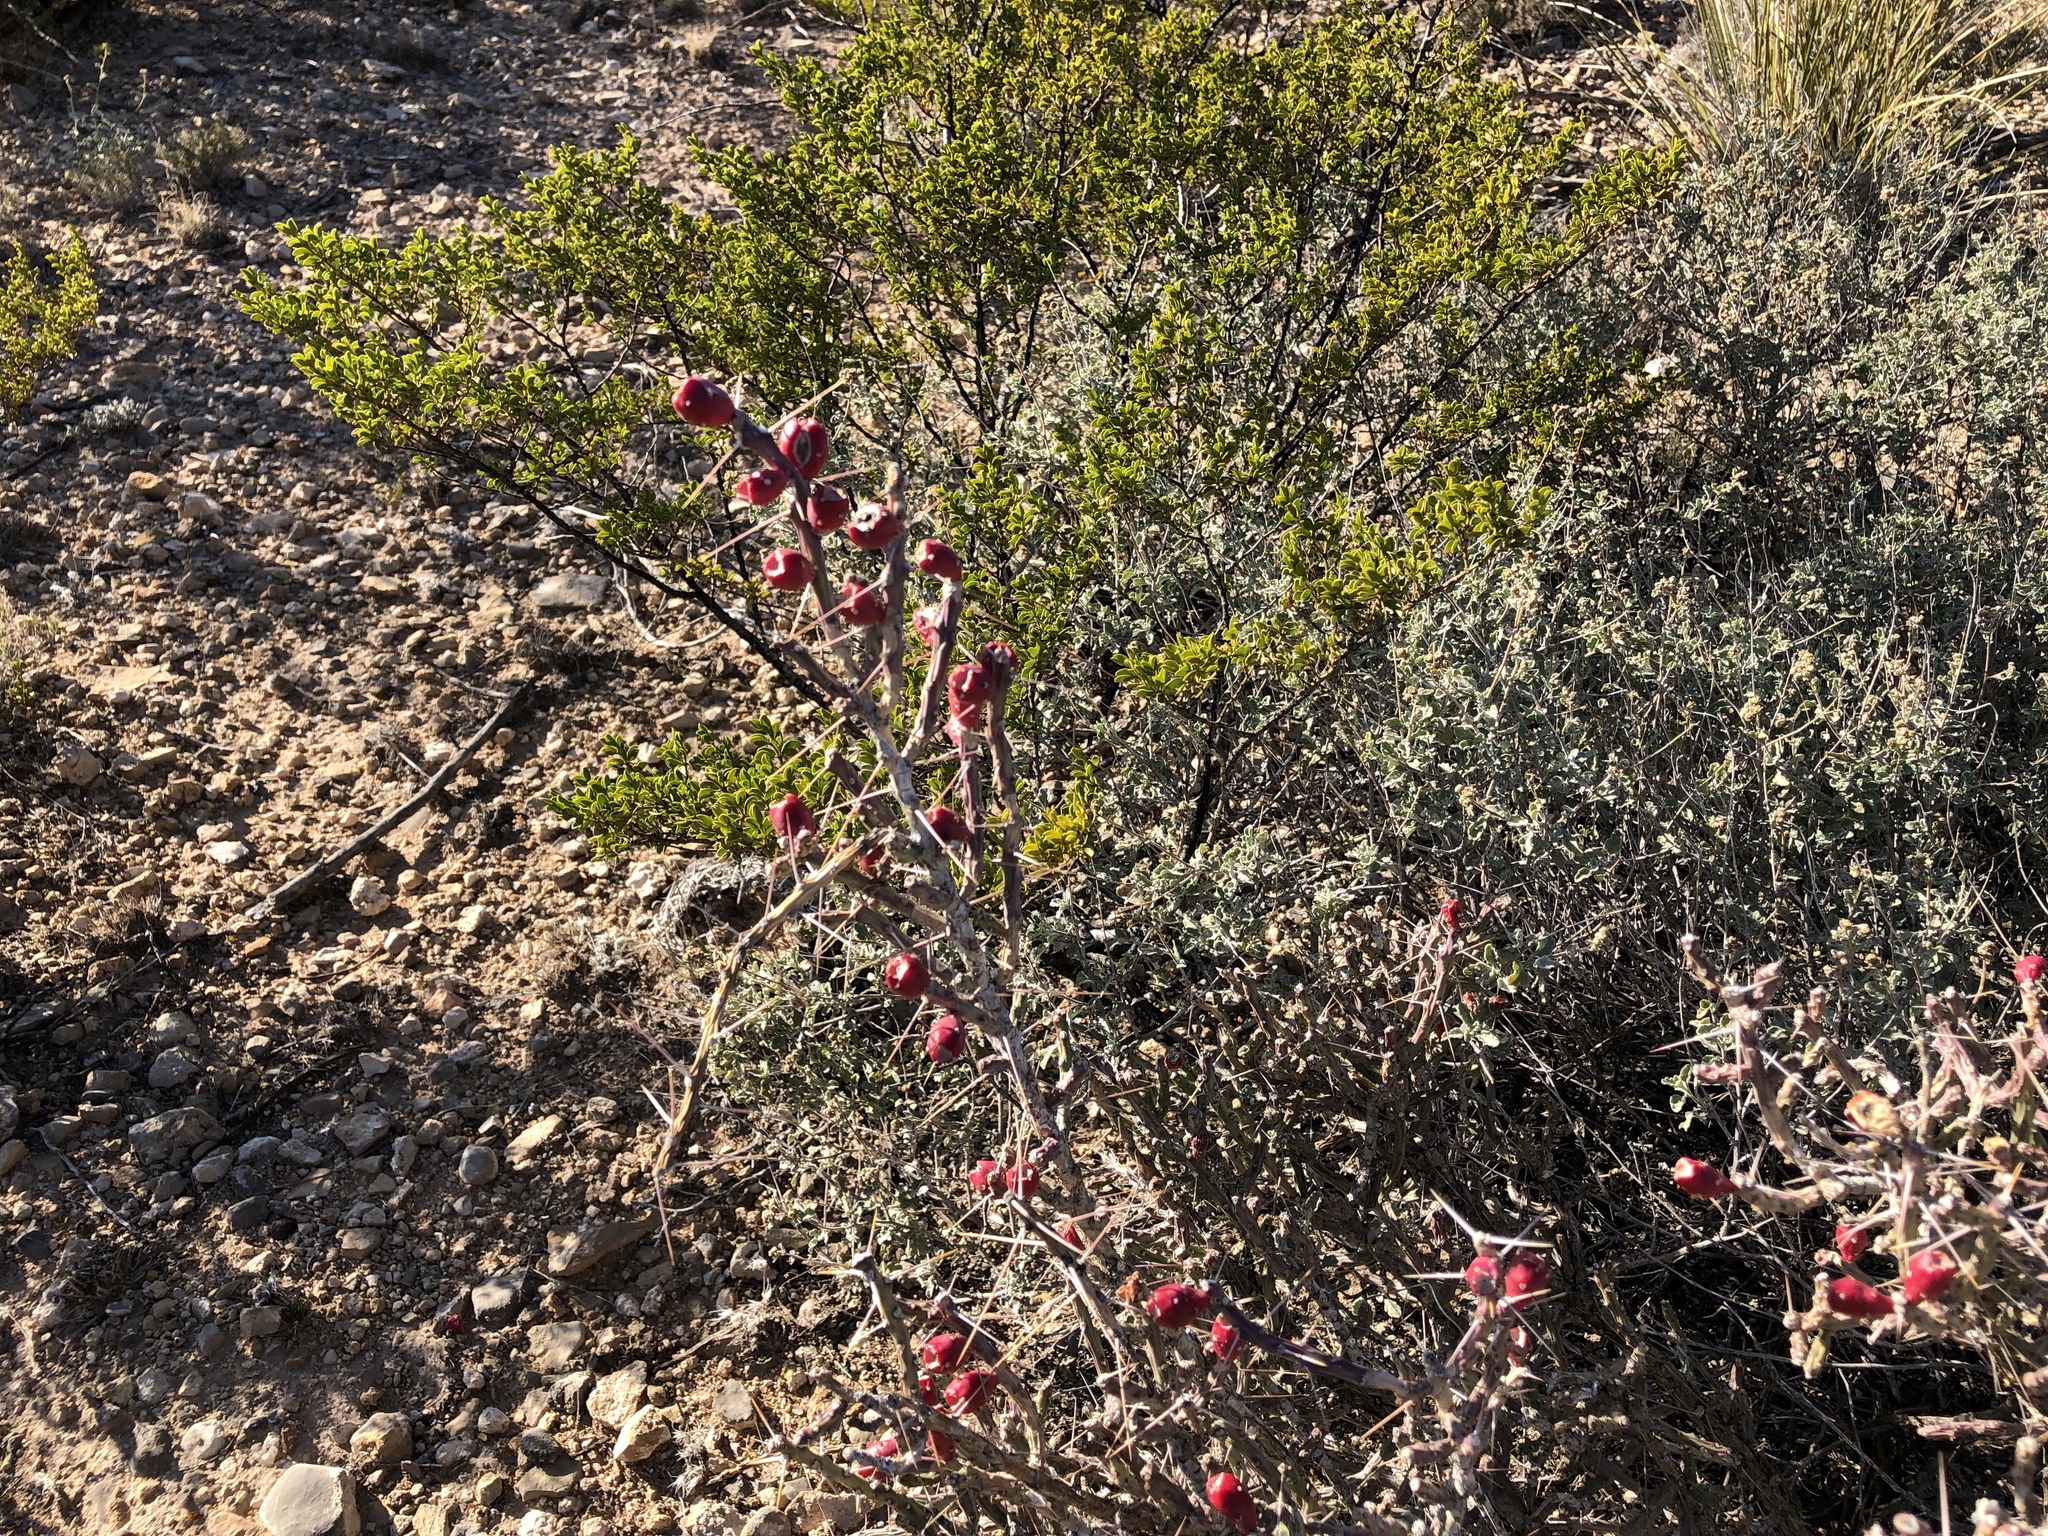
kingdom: Plantae
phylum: Tracheophyta
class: Magnoliopsida
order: Caryophyllales
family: Cactaceae
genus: Cylindropuntia
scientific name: Cylindropuntia leptocaulis
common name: Christmas cactus
